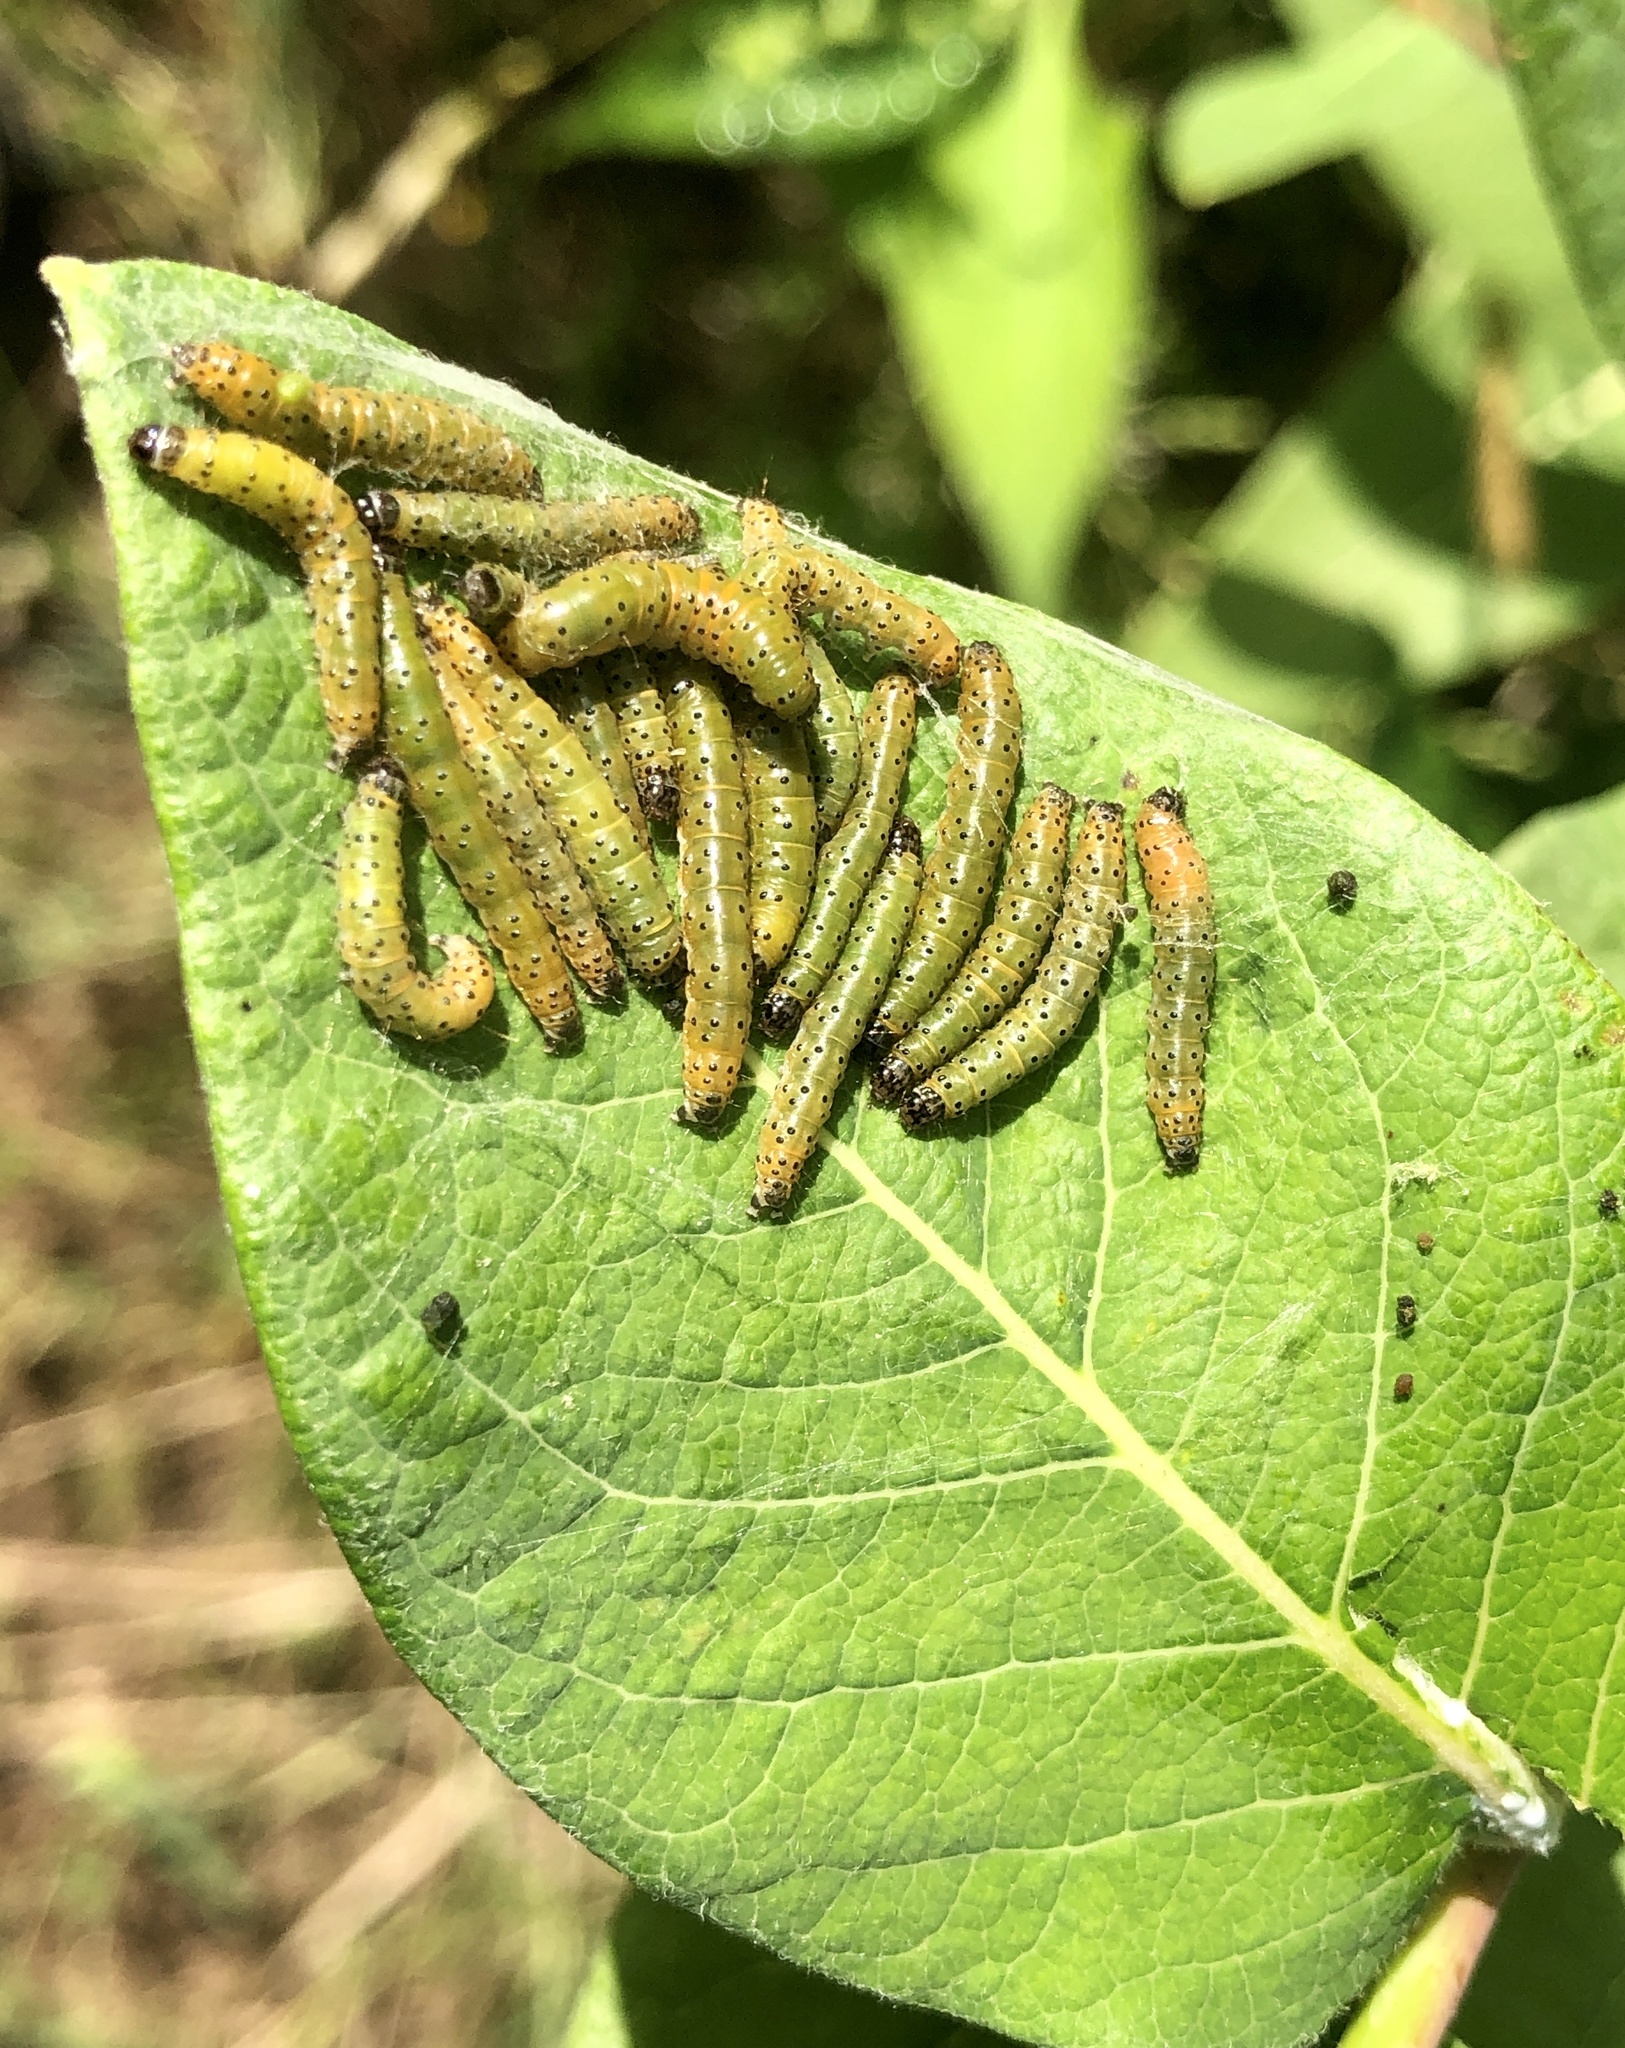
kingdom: Animalia
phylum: Arthropoda
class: Insecta
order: Lepidoptera
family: Crambidae
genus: Saucrobotys
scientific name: Saucrobotys futilalis
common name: Dogbane saucrobotys moth
